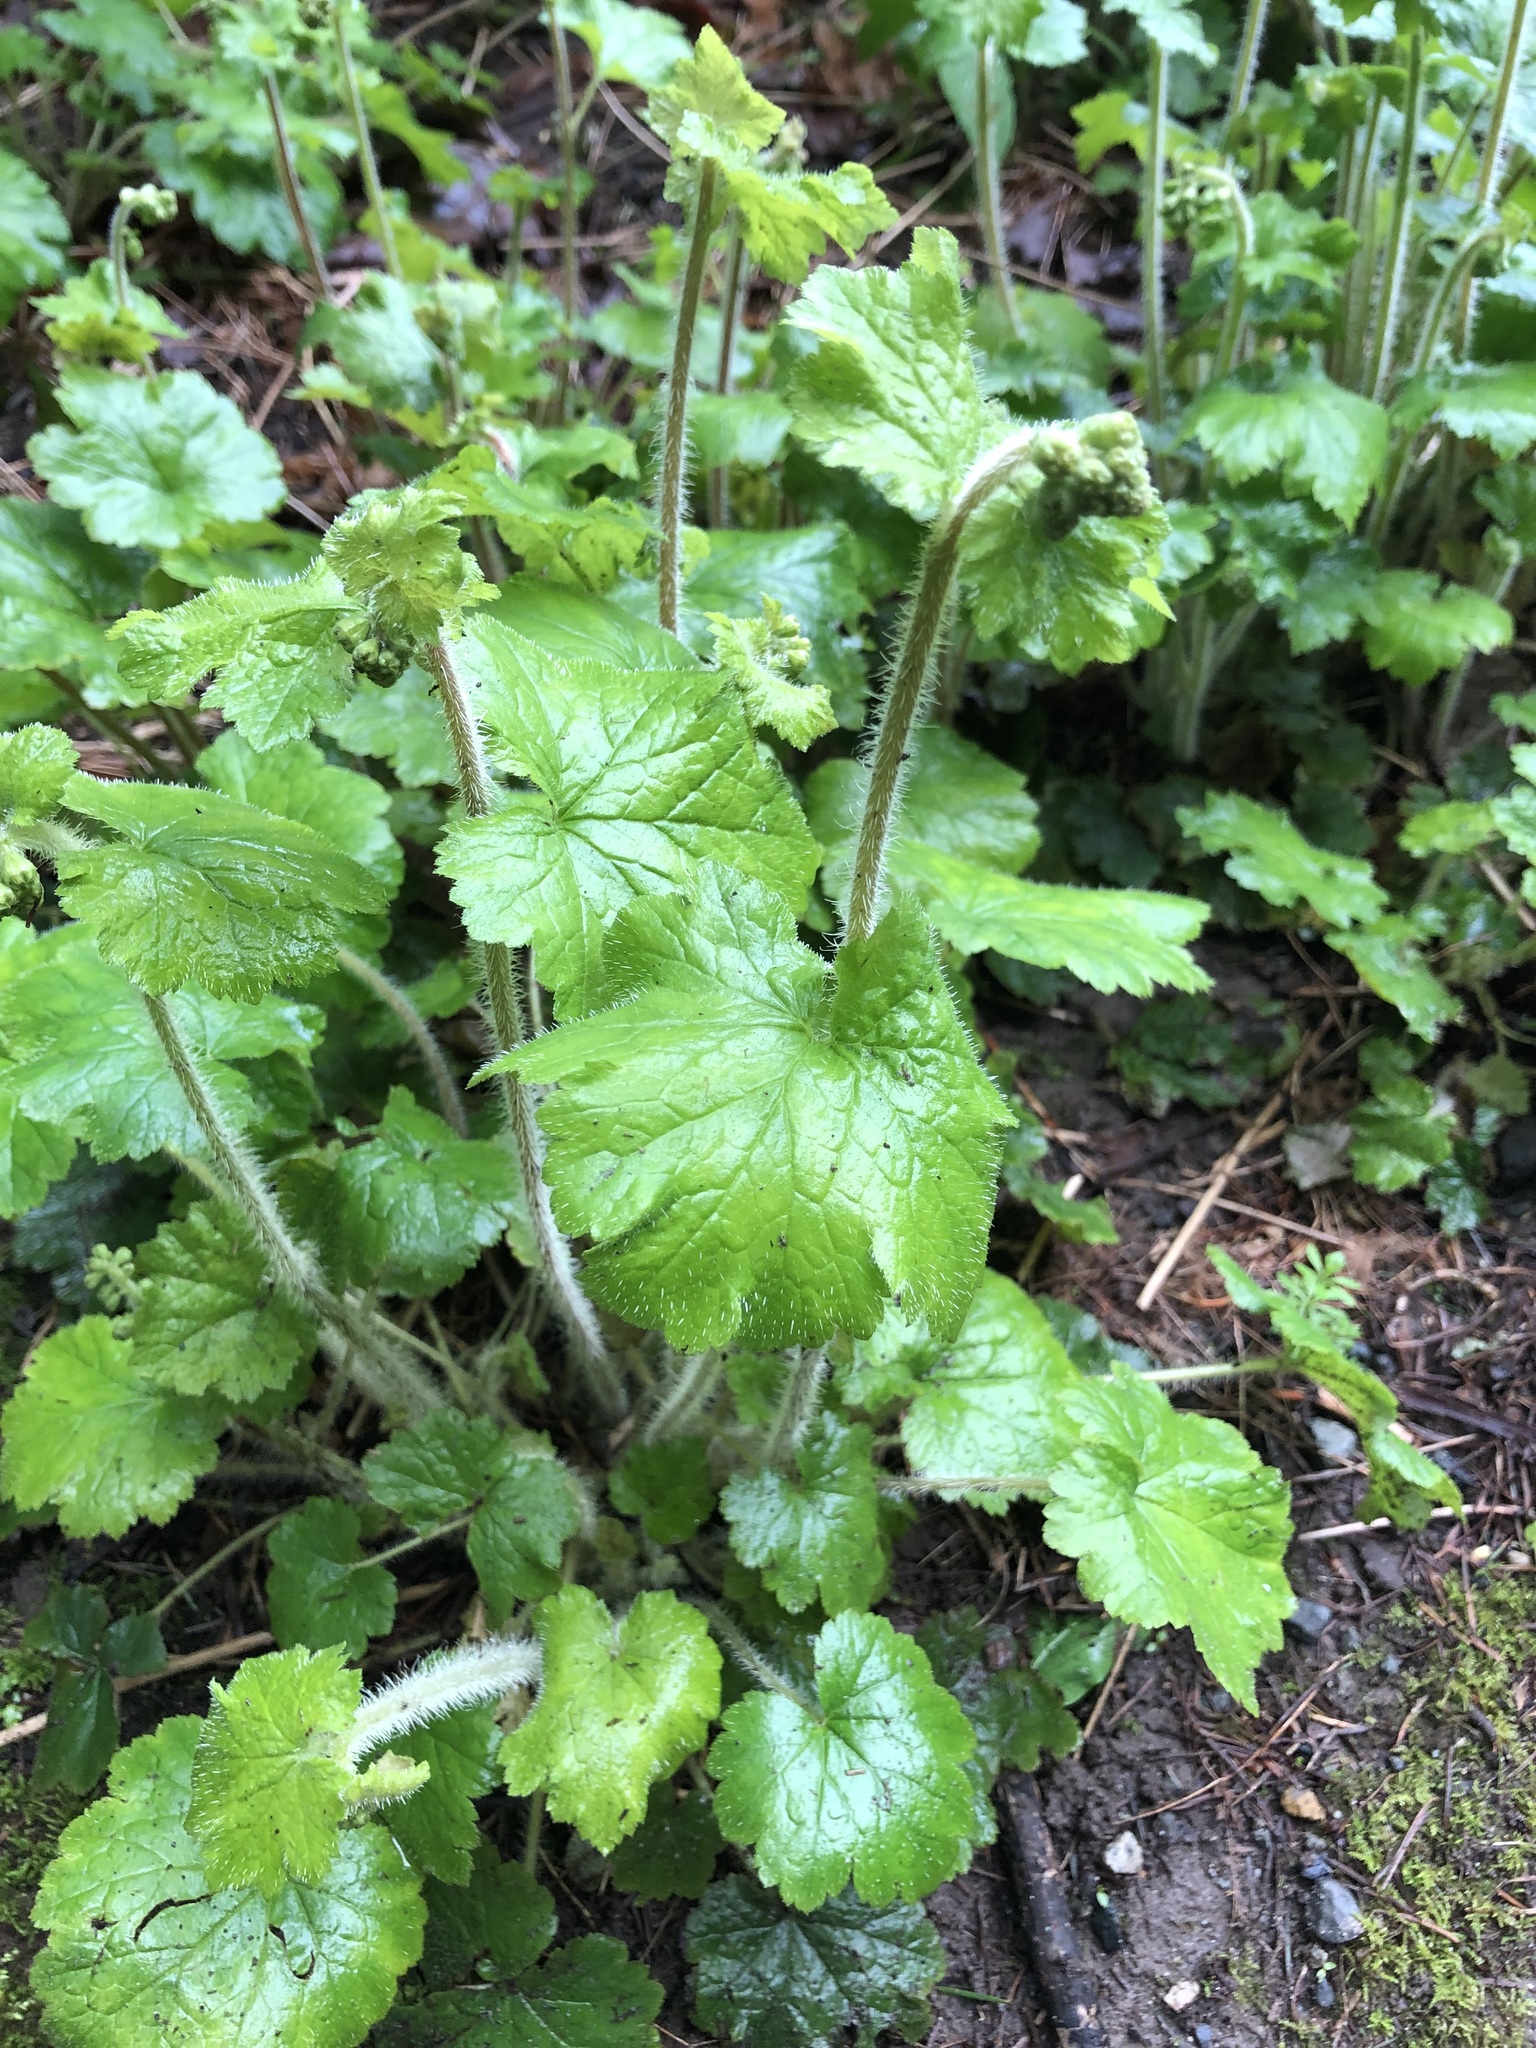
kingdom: Plantae
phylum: Tracheophyta
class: Magnoliopsida
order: Saxifragales
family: Saxifragaceae
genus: Tellima
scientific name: Tellima grandiflora
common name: Fringecups
